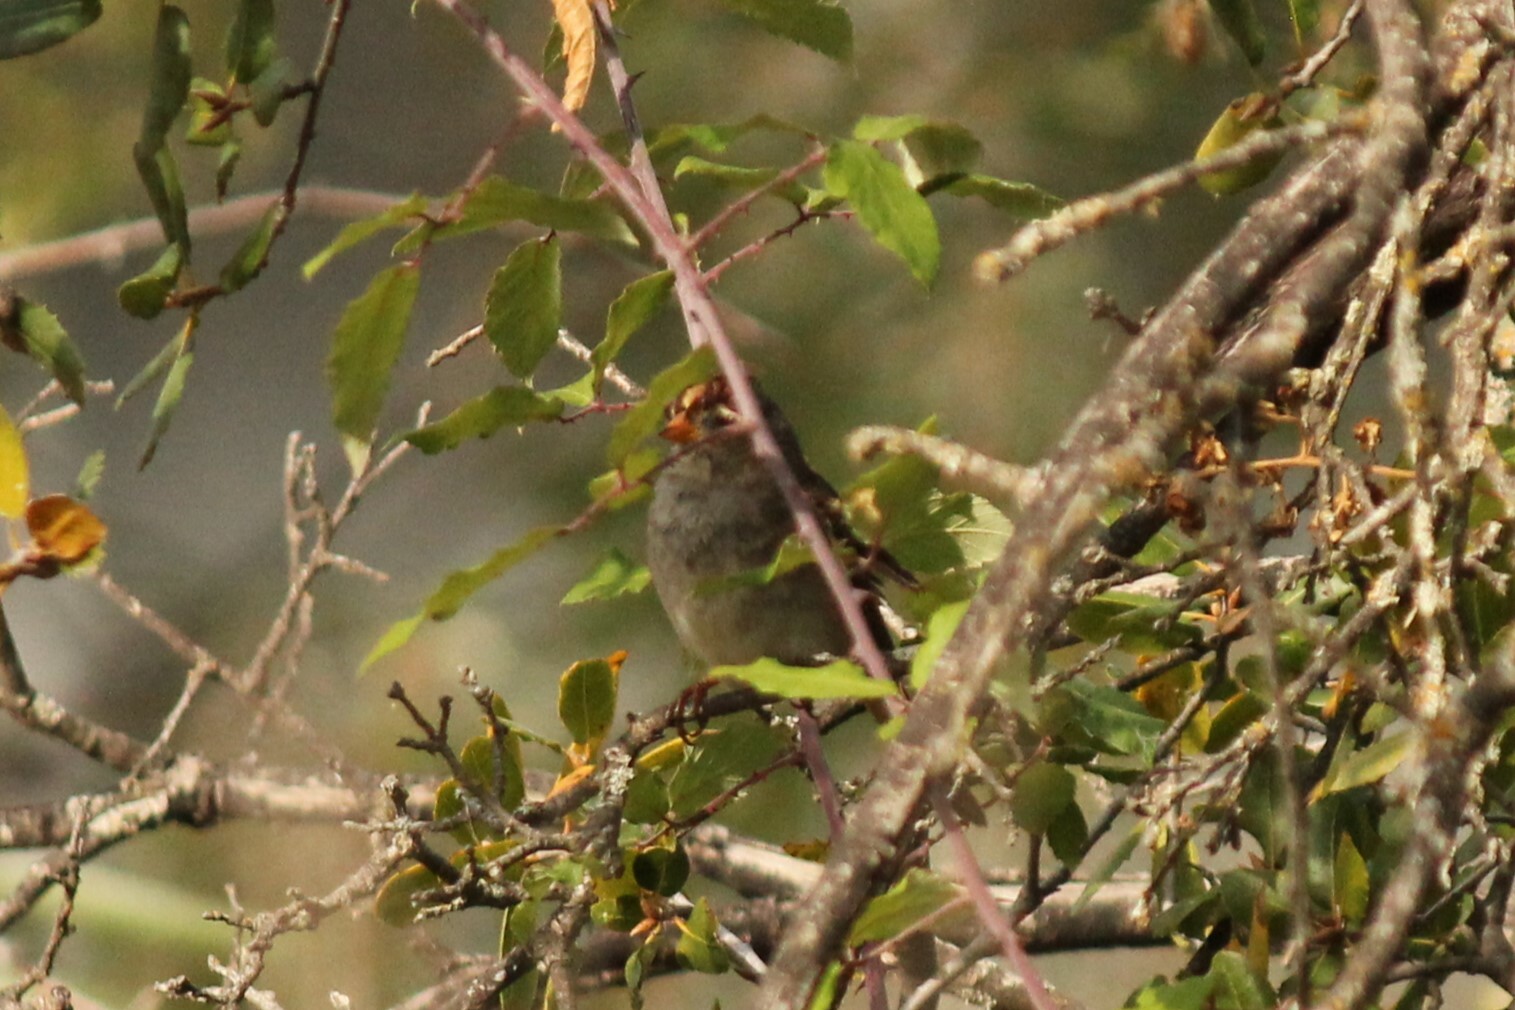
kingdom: Animalia
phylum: Chordata
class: Aves
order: Passeriformes
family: Passerellidae
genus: Zonotrichia
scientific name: Zonotrichia leucophrys
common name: White-crowned sparrow
